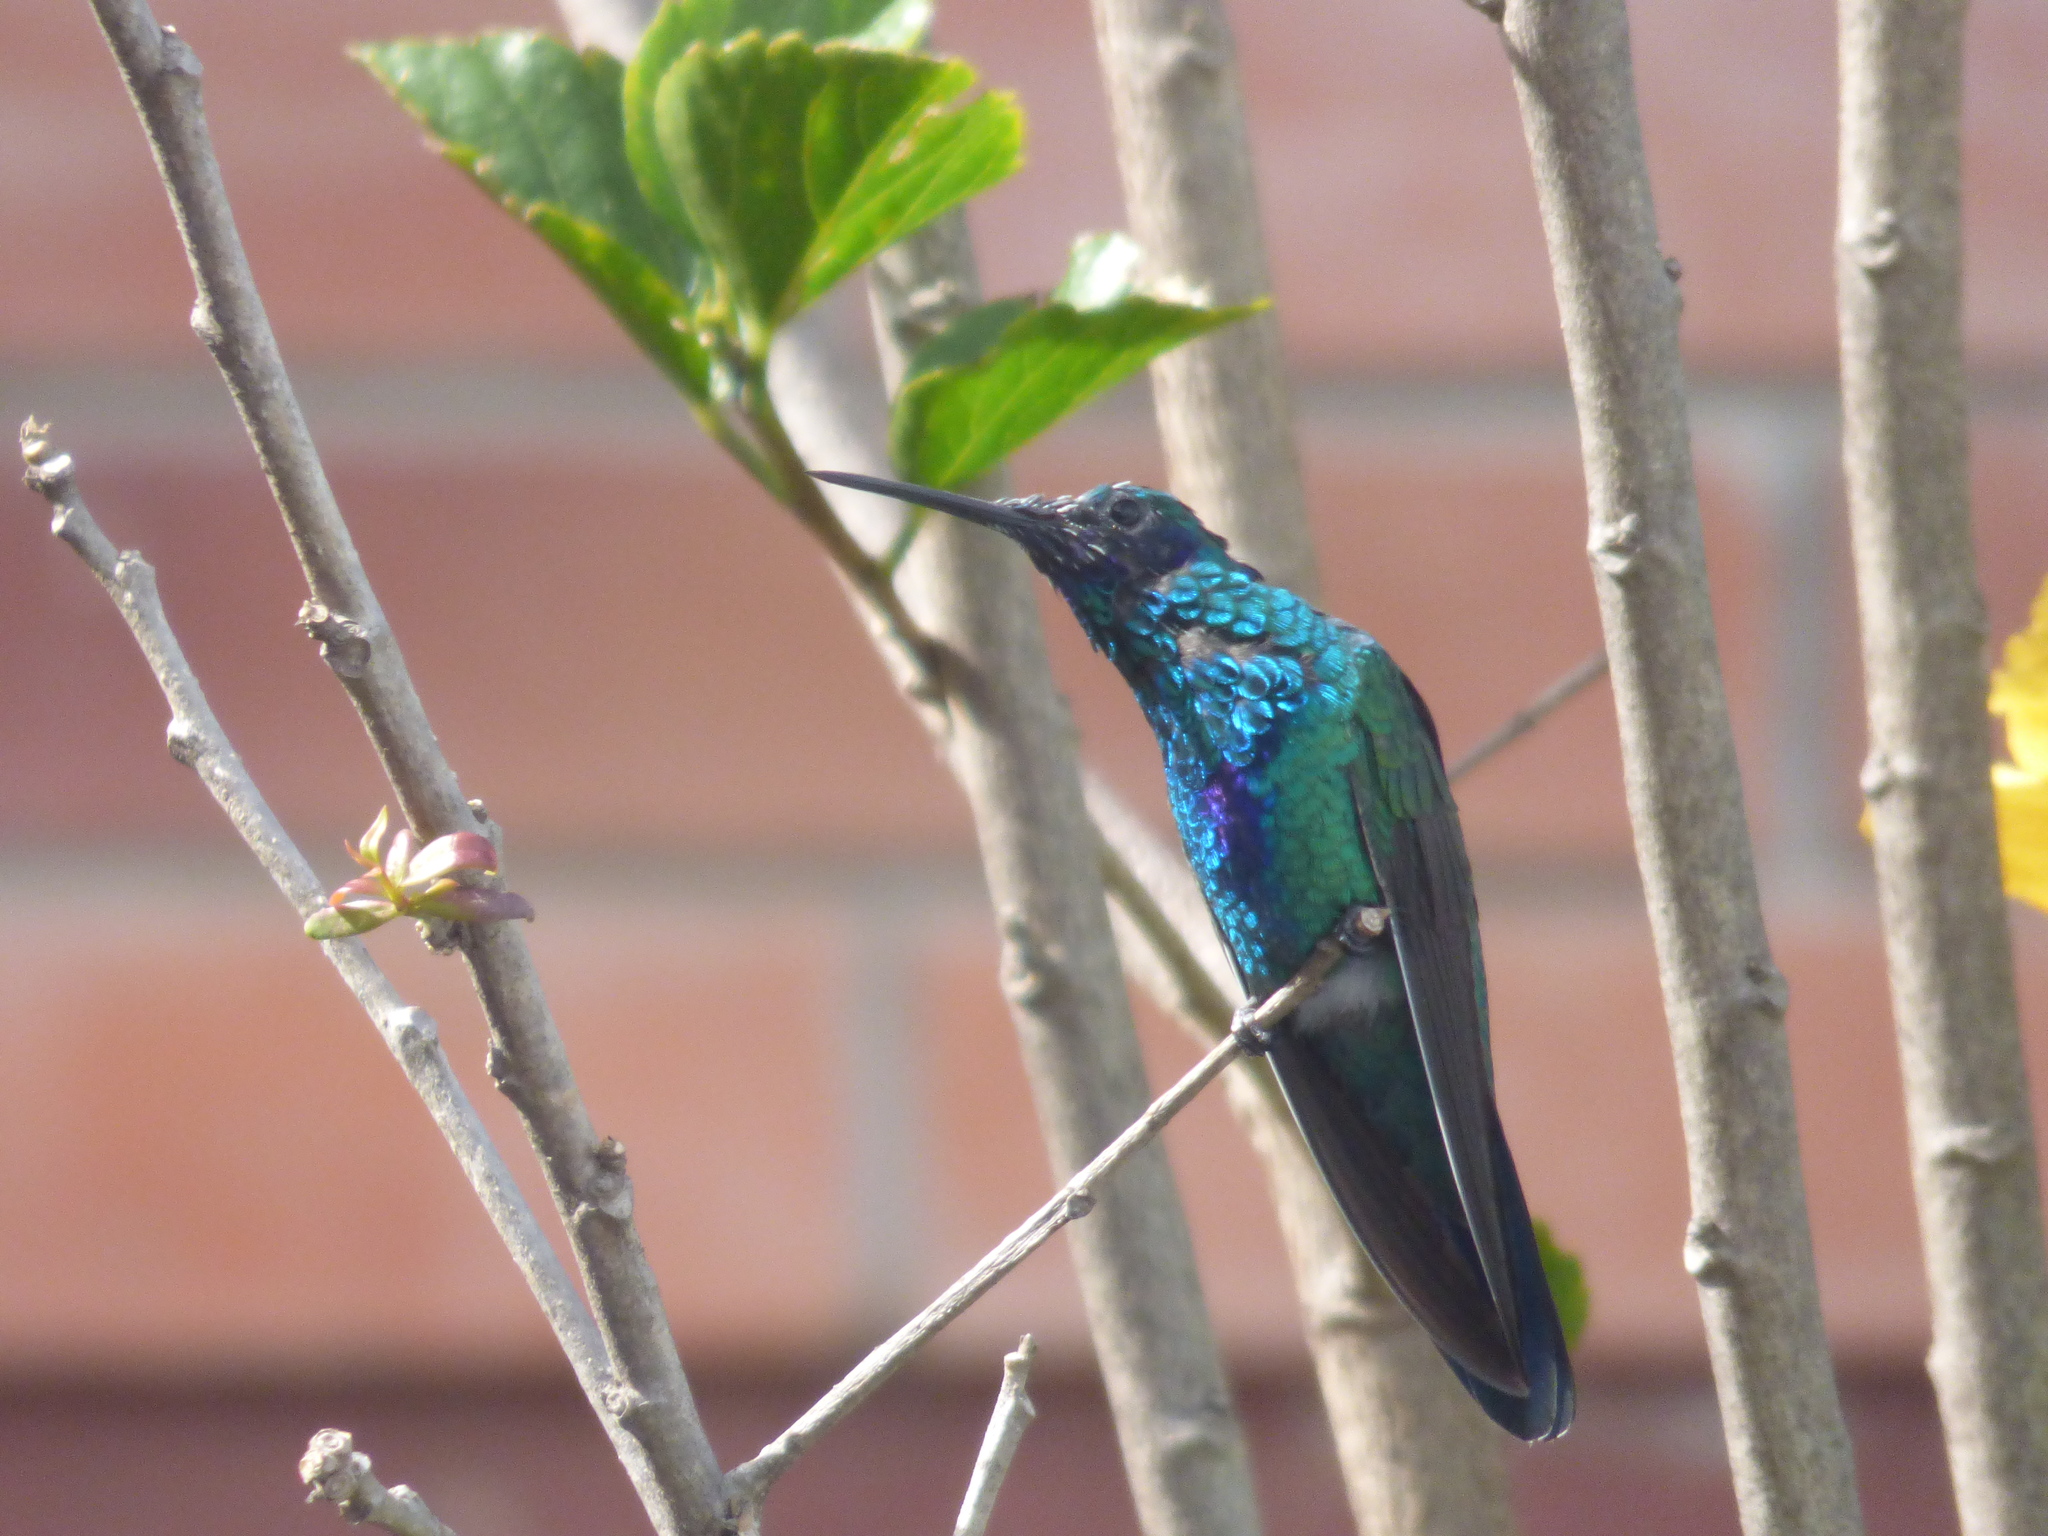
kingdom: Animalia
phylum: Chordata
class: Aves
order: Apodiformes
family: Trochilidae
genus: Colibri
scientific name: Colibri coruscans
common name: Sparkling violetear
